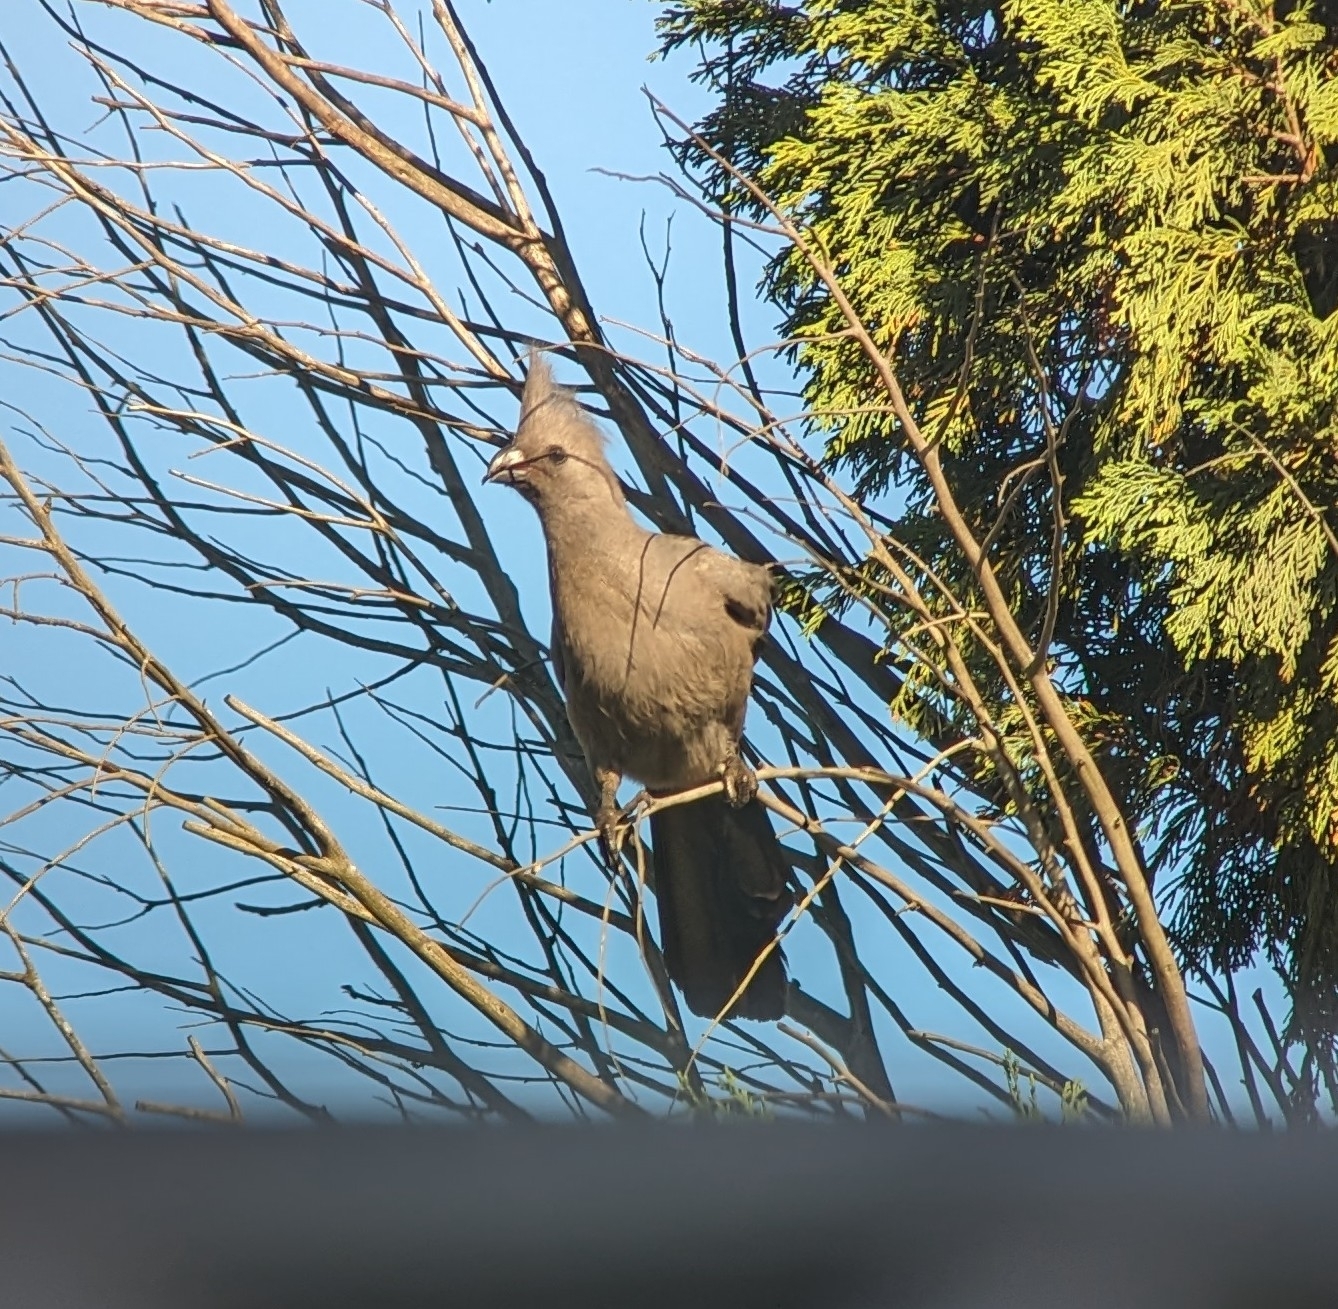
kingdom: Animalia
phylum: Chordata
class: Aves
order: Musophagiformes
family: Musophagidae
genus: Corythaixoides
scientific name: Corythaixoides concolor
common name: Grey go-away-bird
